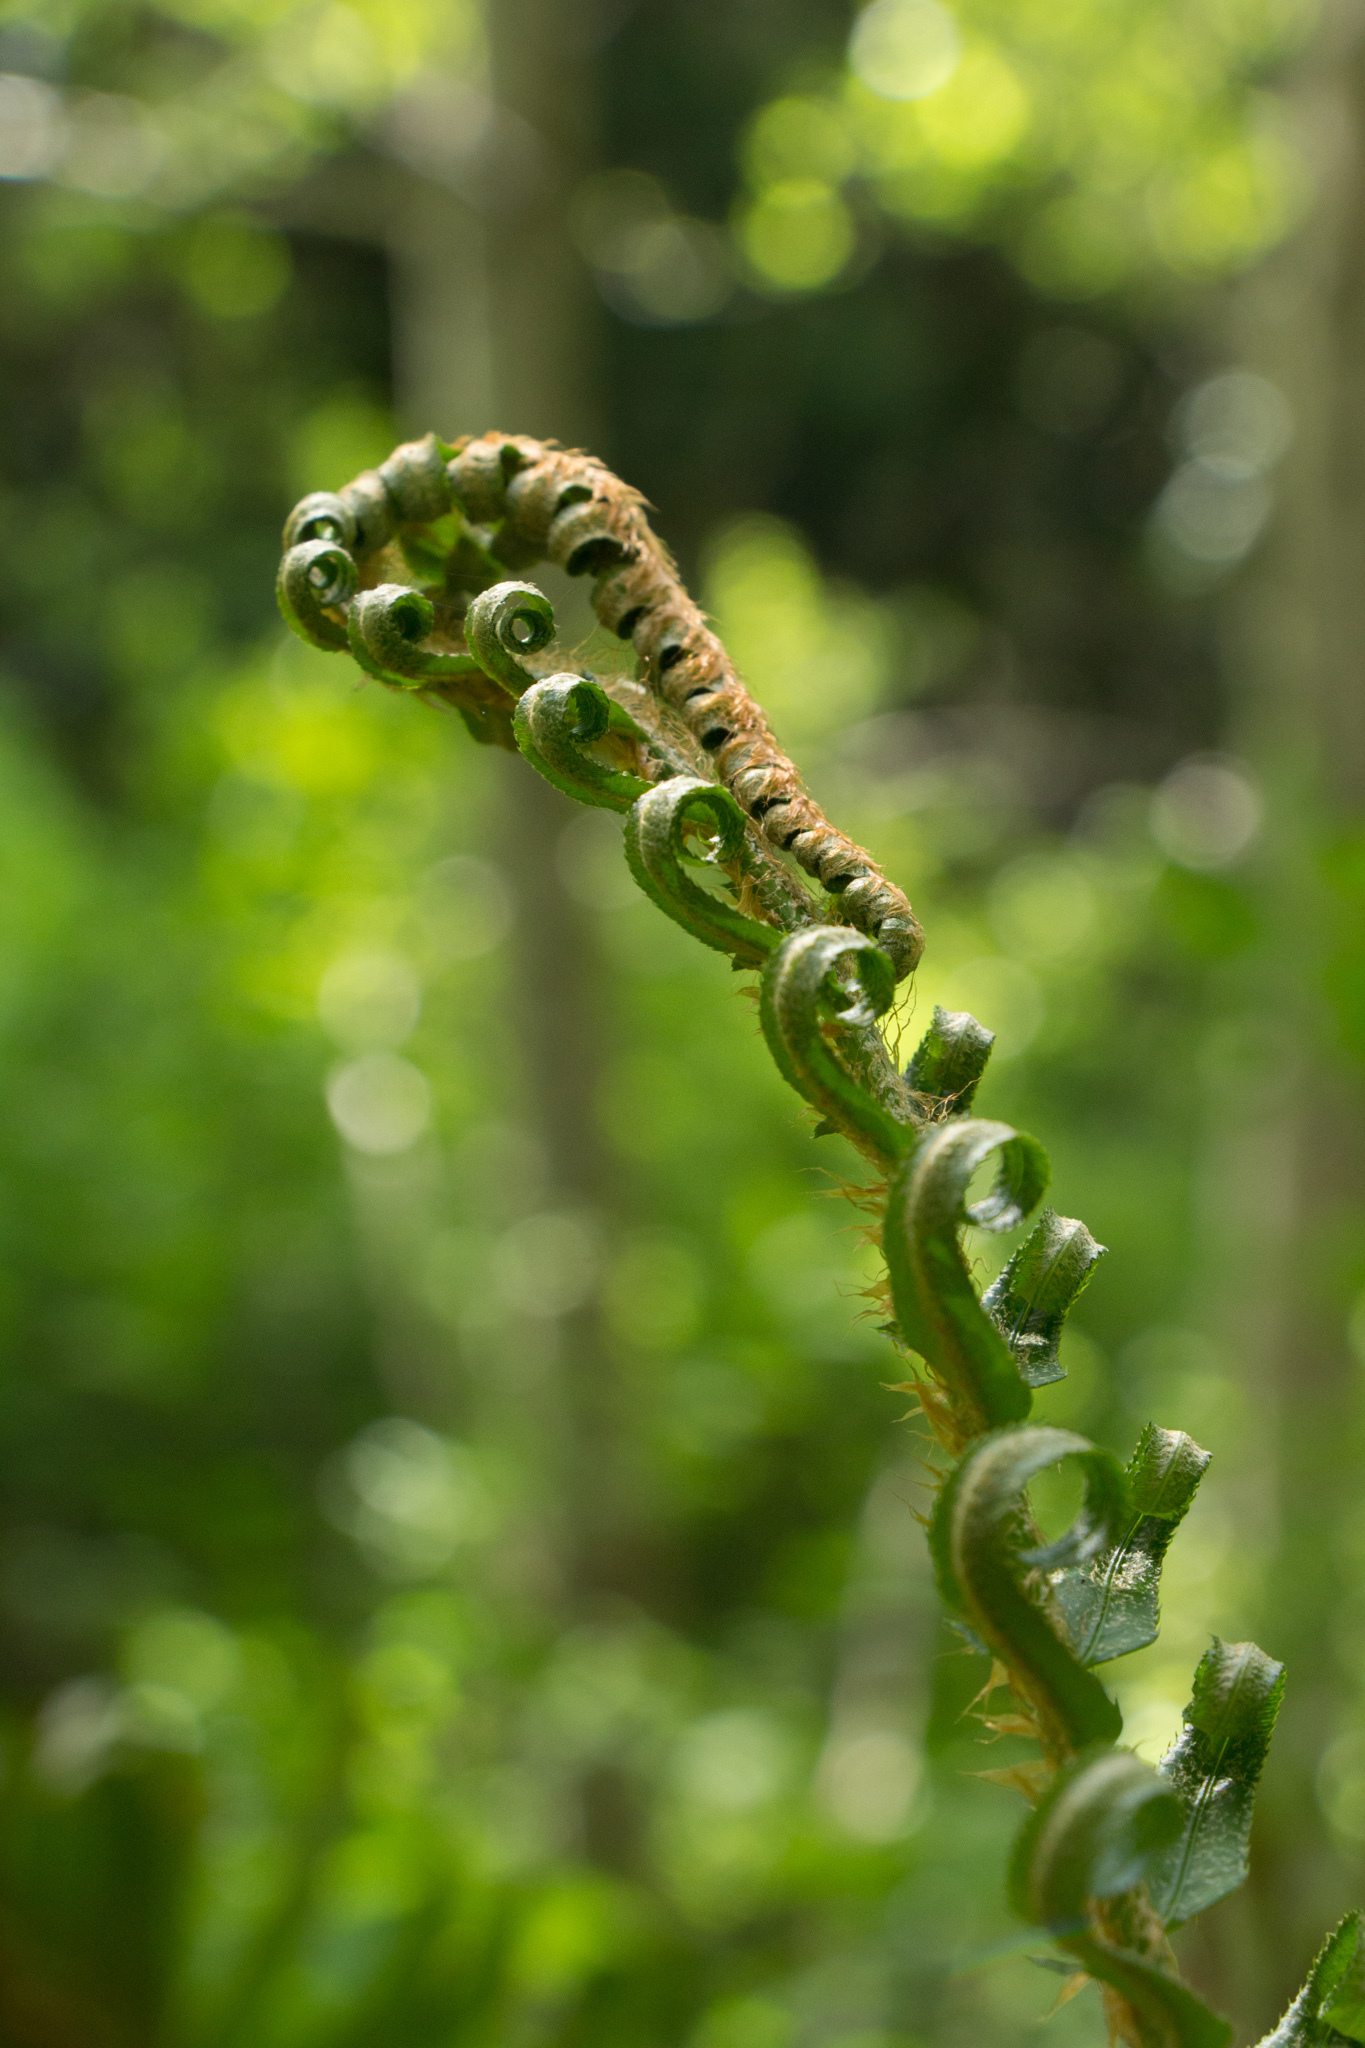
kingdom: Plantae
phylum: Tracheophyta
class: Polypodiopsida
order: Polypodiales
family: Dryopteridaceae
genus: Polystichum
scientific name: Polystichum munitum
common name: Western sword-fern
